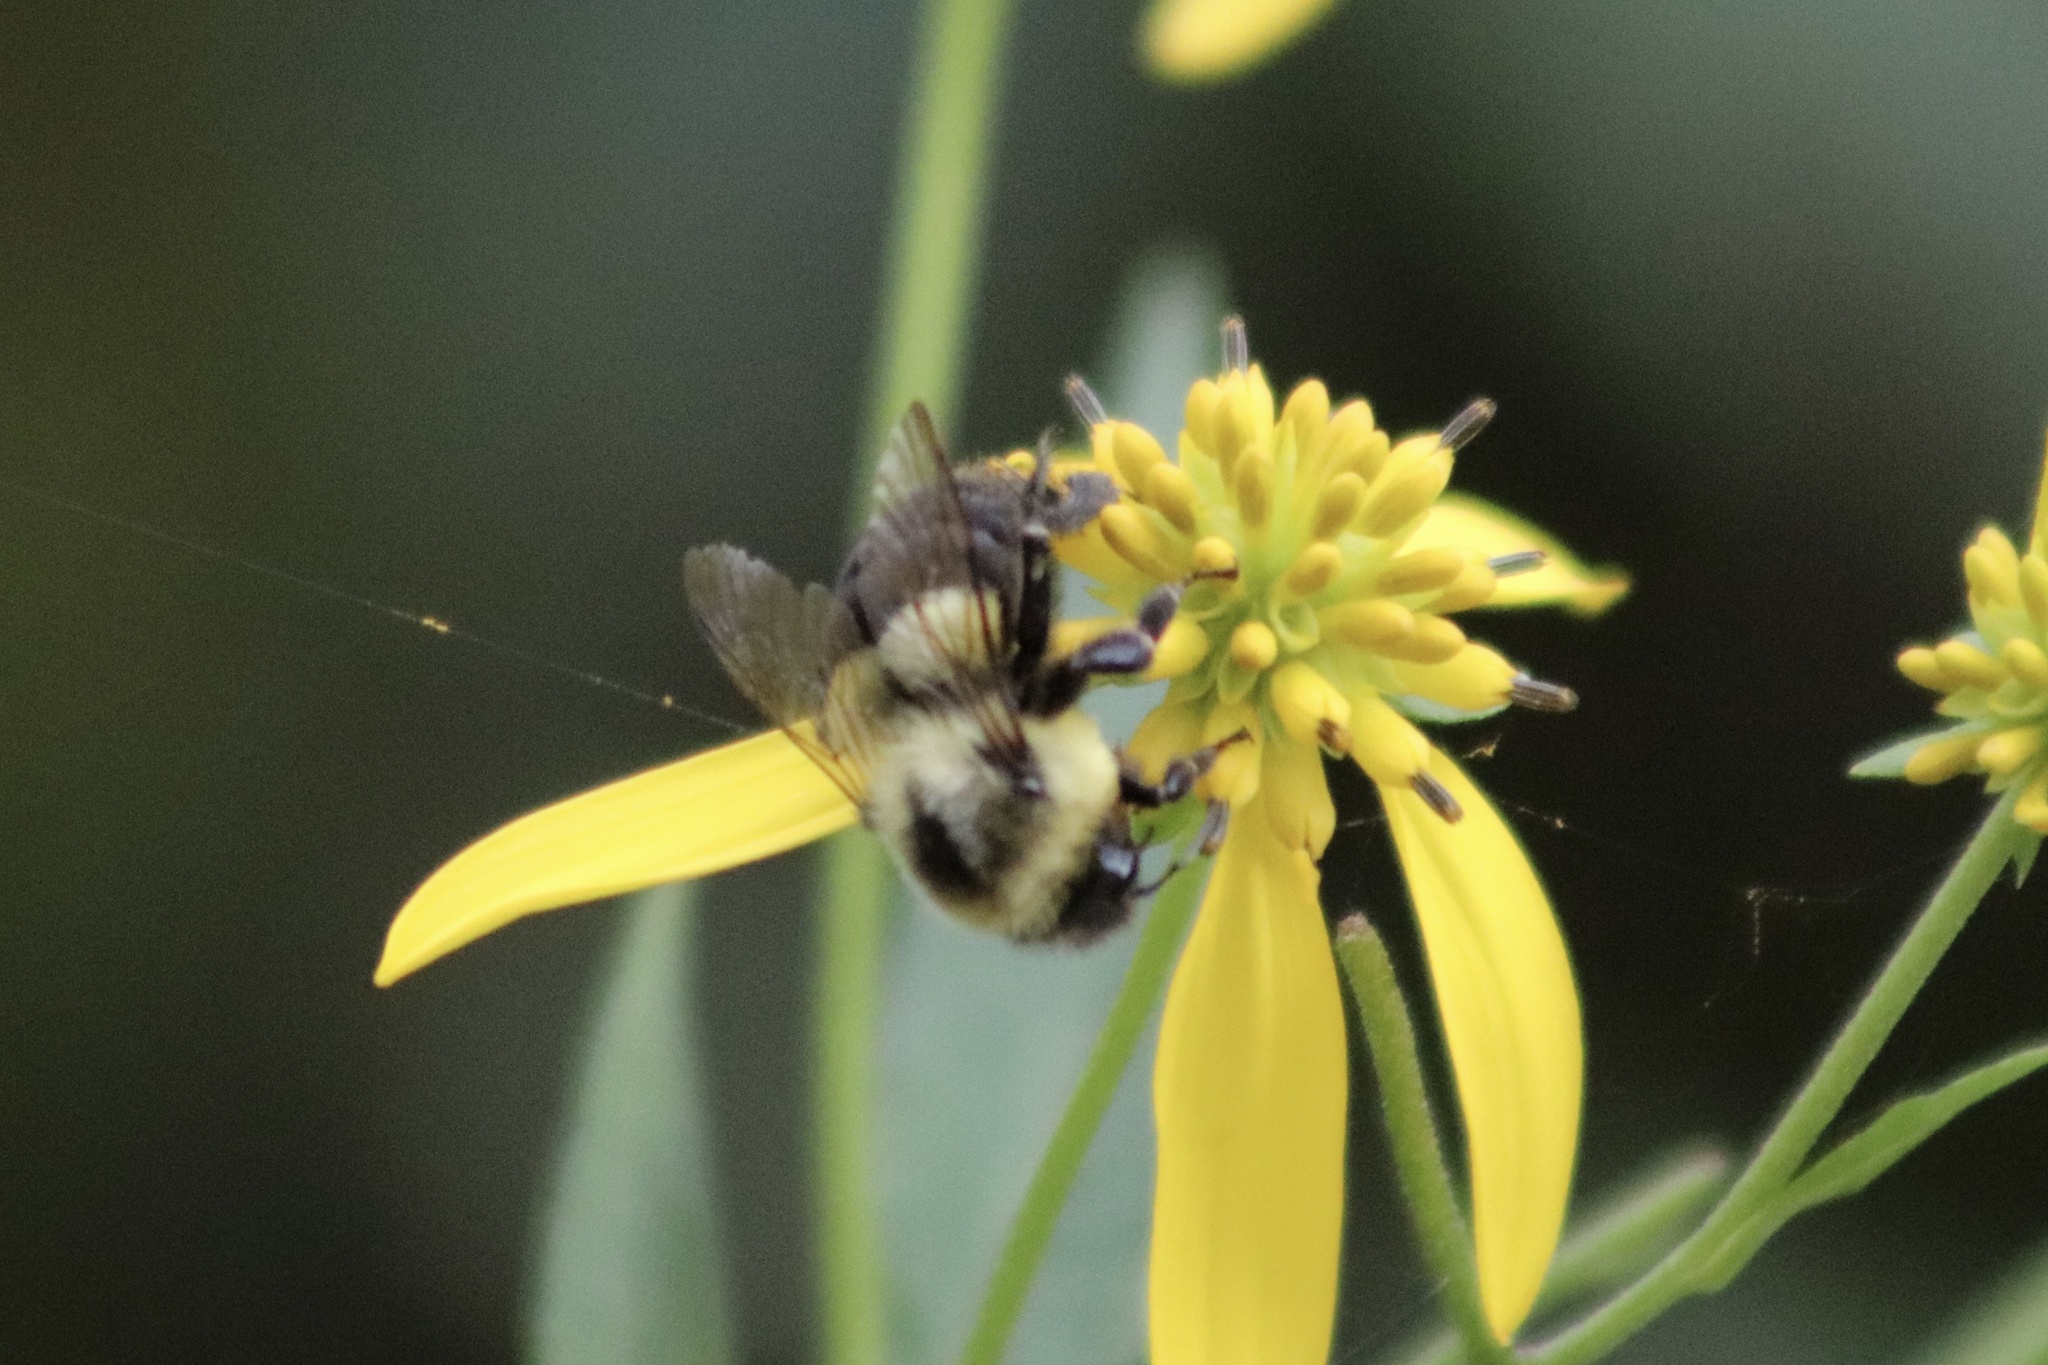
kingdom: Animalia
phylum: Arthropoda
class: Insecta
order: Hymenoptera
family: Apidae
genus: Bombus
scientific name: Bombus impatiens
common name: Common eastern bumble bee
